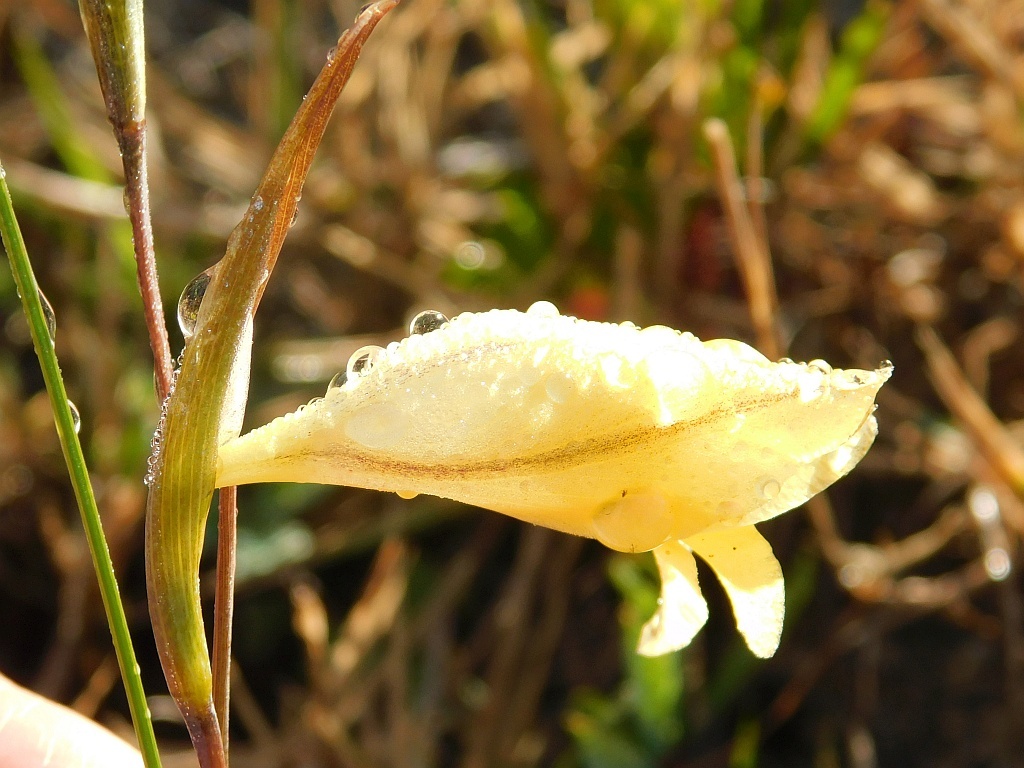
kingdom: Plantae
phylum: Tracheophyta
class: Liliopsida
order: Asparagales
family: Iridaceae
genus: Gladiolus
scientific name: Gladiolus carinatus
